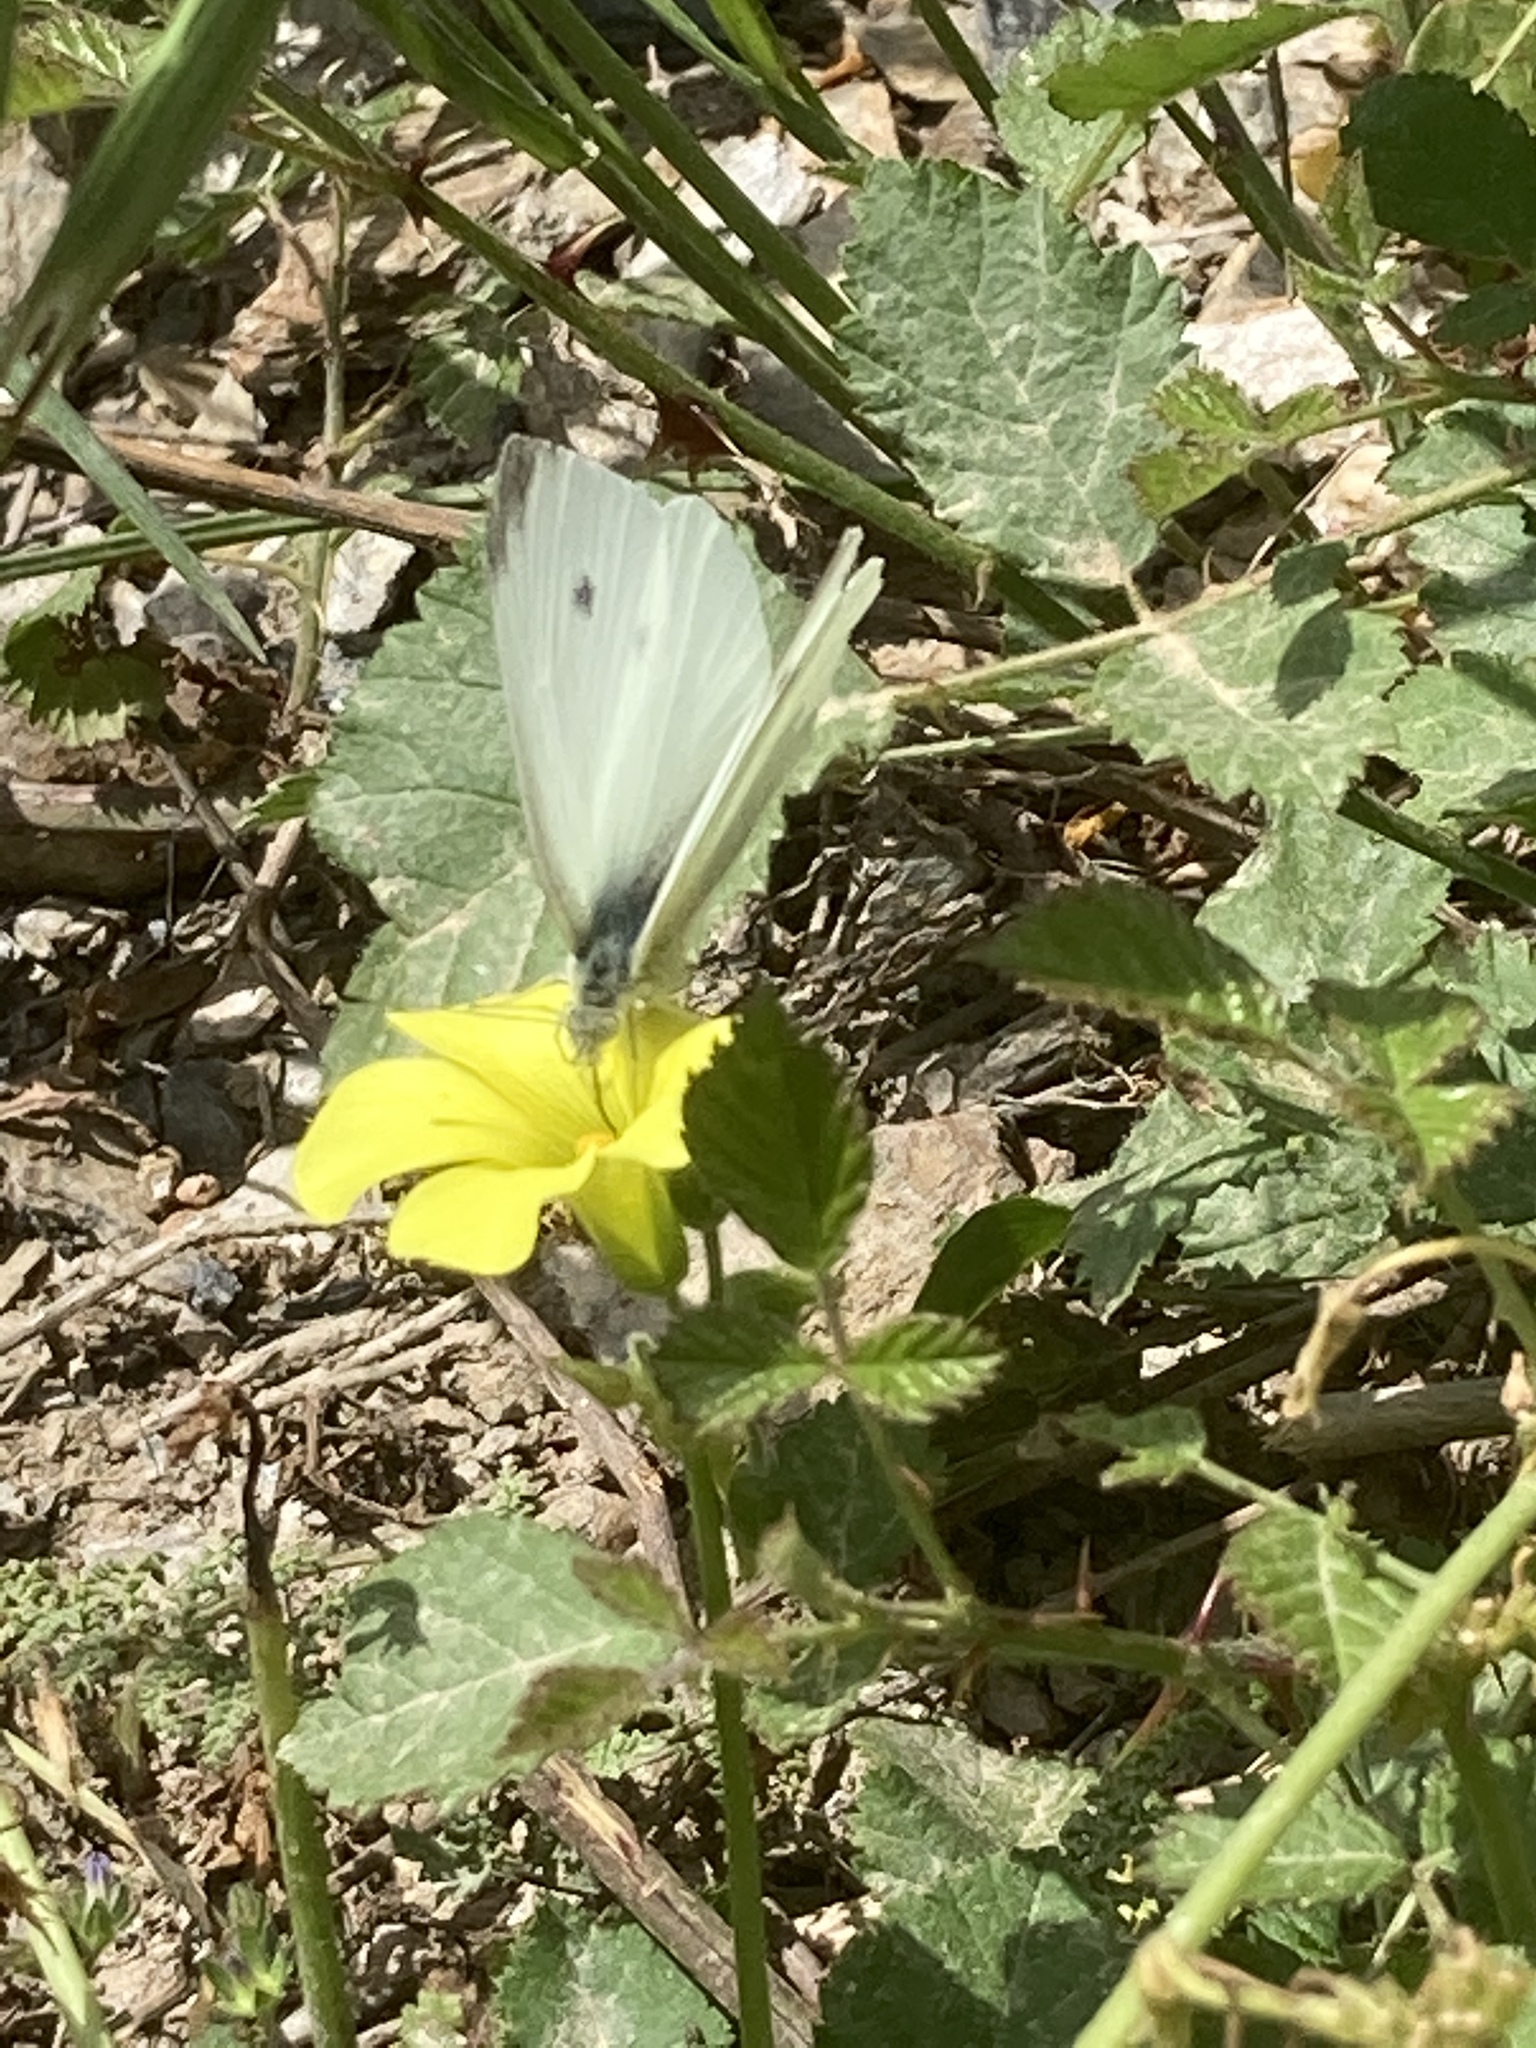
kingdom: Animalia
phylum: Arthropoda
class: Insecta
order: Lepidoptera
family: Pieridae
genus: Pieris
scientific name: Pieris rapae
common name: Small white
